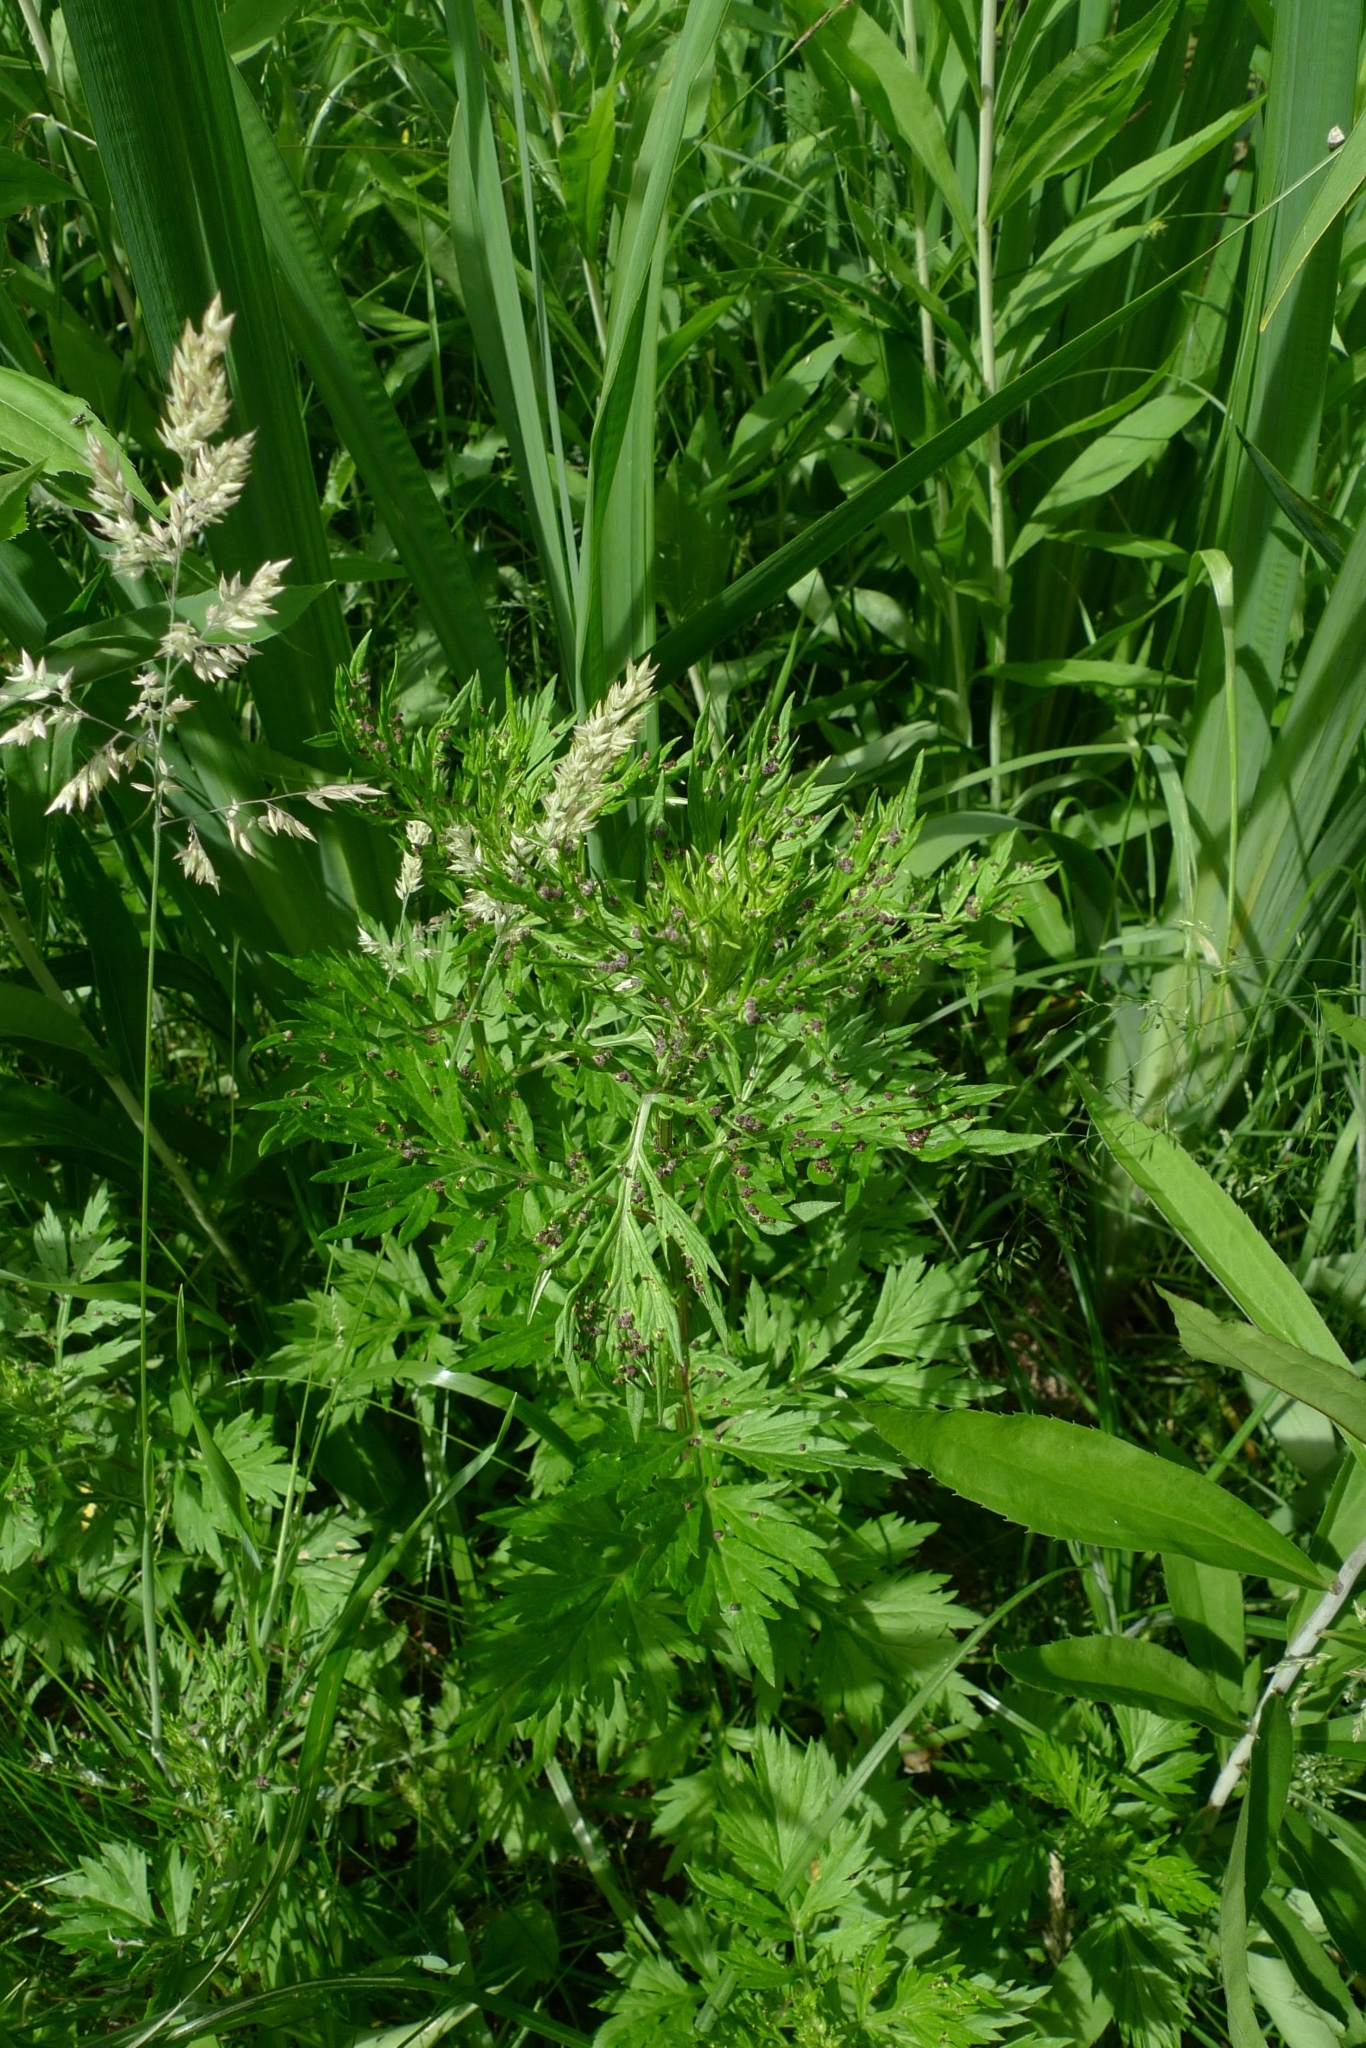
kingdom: Plantae
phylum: Tracheophyta
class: Magnoliopsida
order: Asterales
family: Asteraceae
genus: Artemisia
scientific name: Artemisia vulgaris
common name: Mugwort
